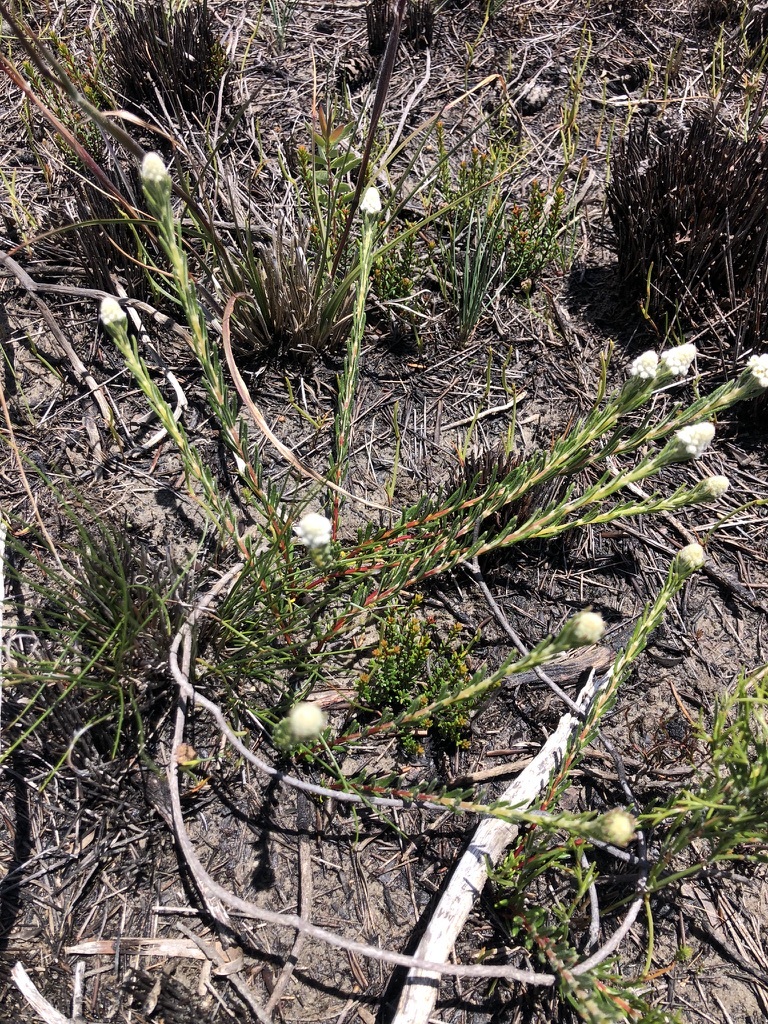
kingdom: Plantae
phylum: Tracheophyta
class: Magnoliopsida
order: Rosales
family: Rhamnaceae
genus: Phylica
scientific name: Phylica imberbis
